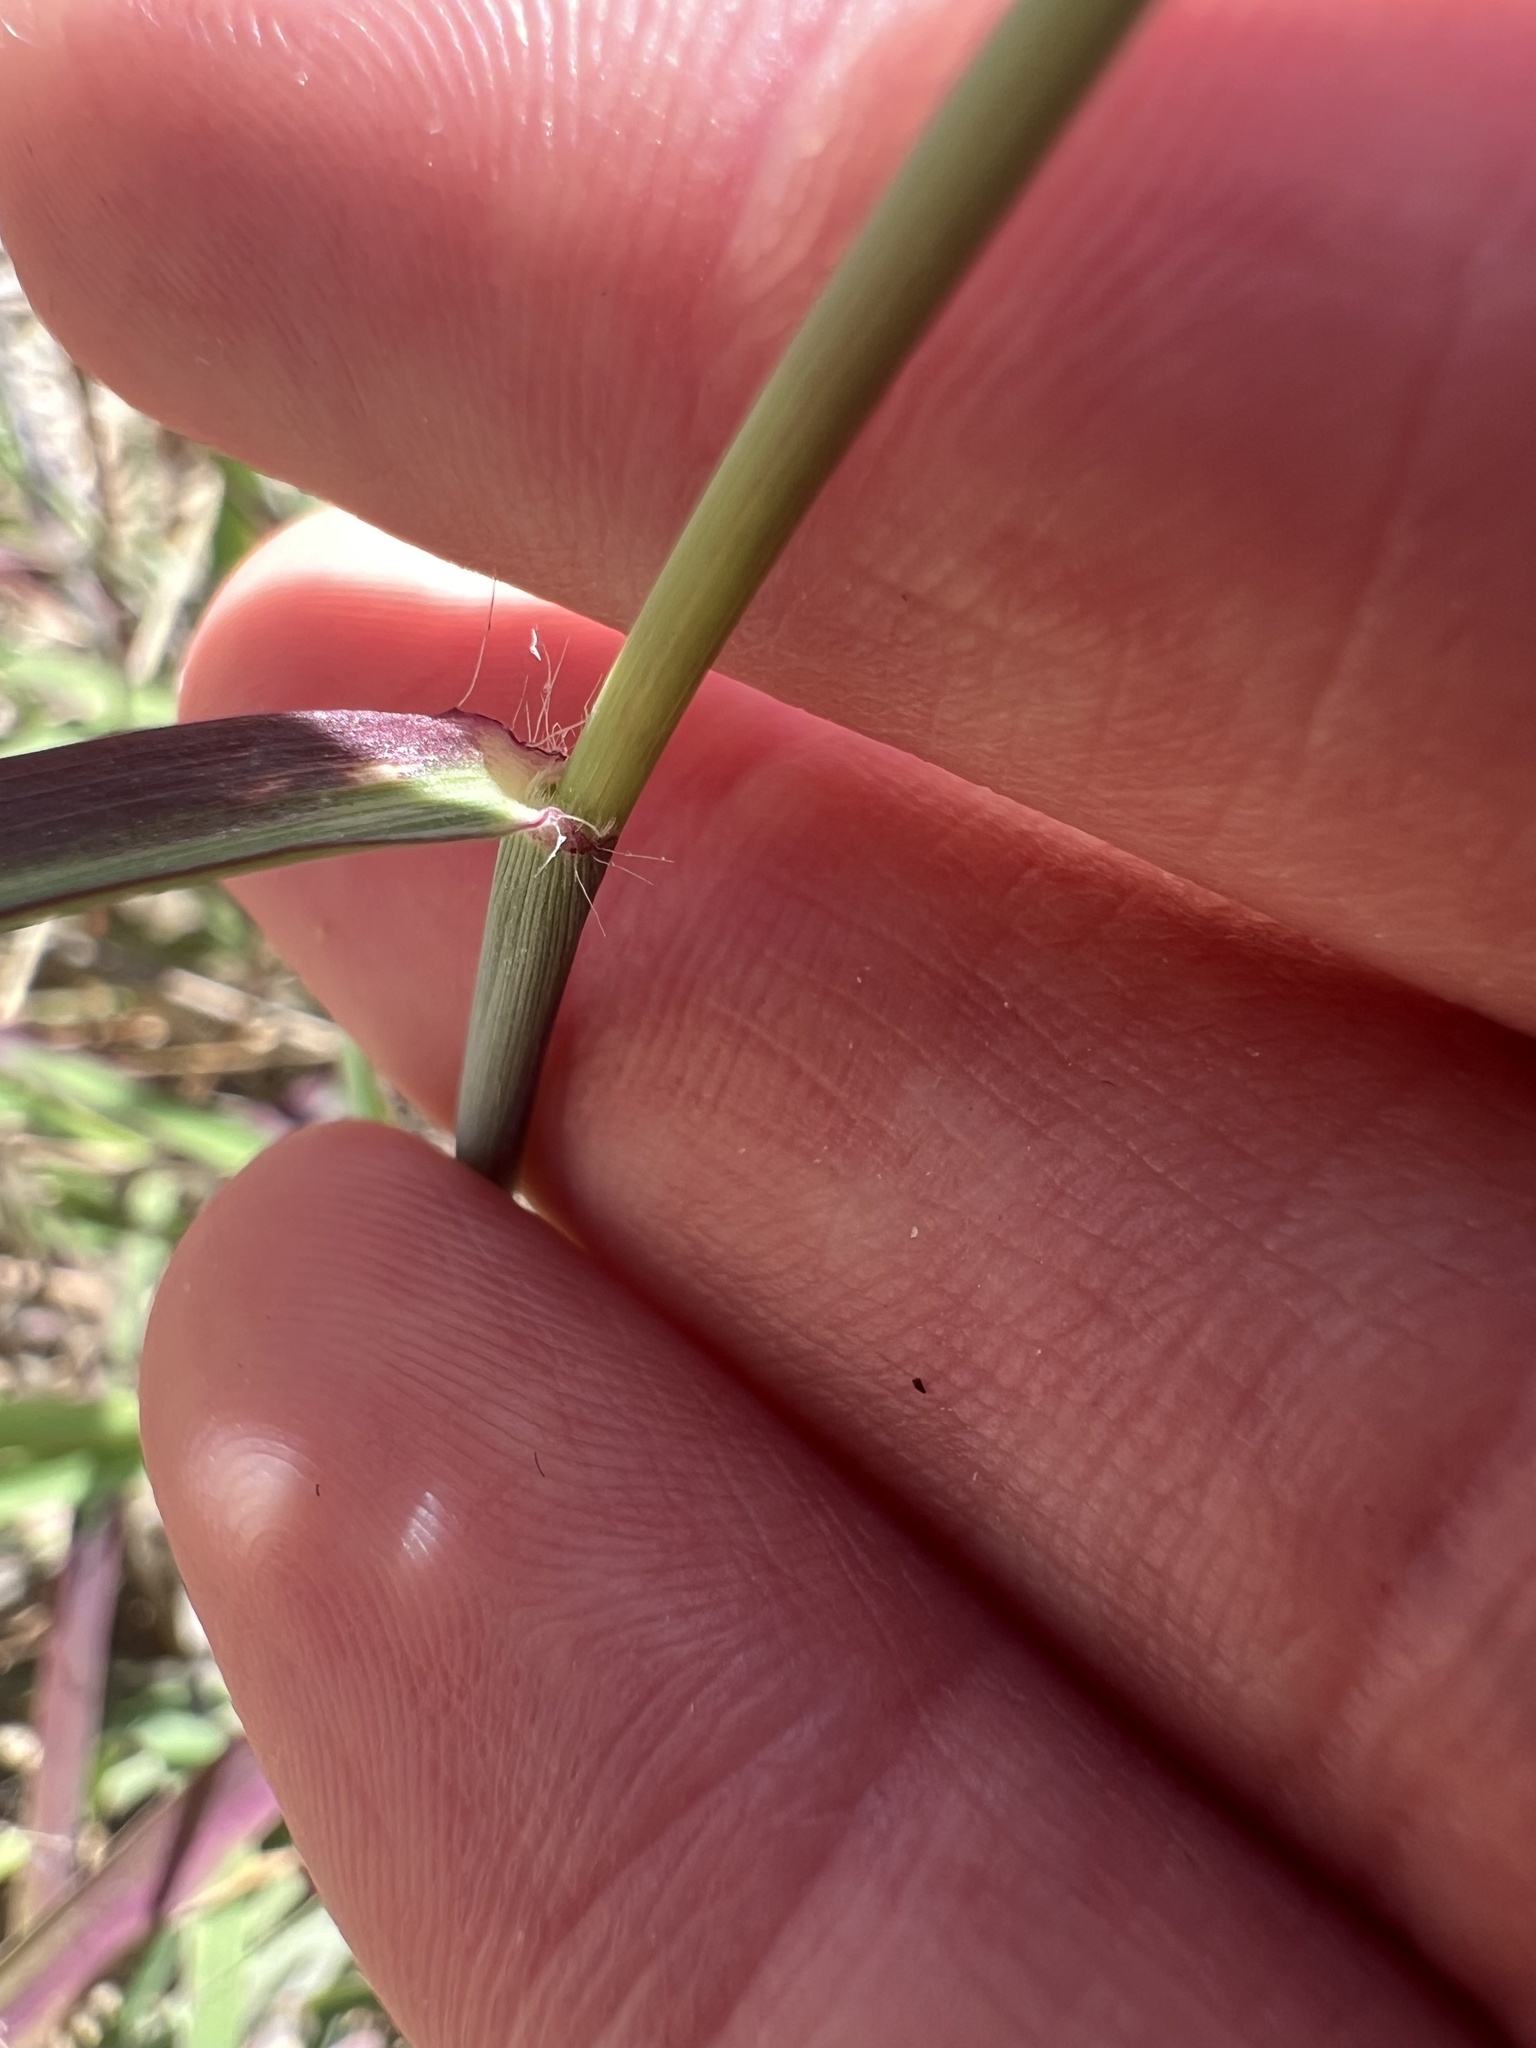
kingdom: Plantae
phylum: Tracheophyta
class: Liliopsida
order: Poales
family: Poaceae
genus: Melinis
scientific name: Melinis repens
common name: Rose natal grass
